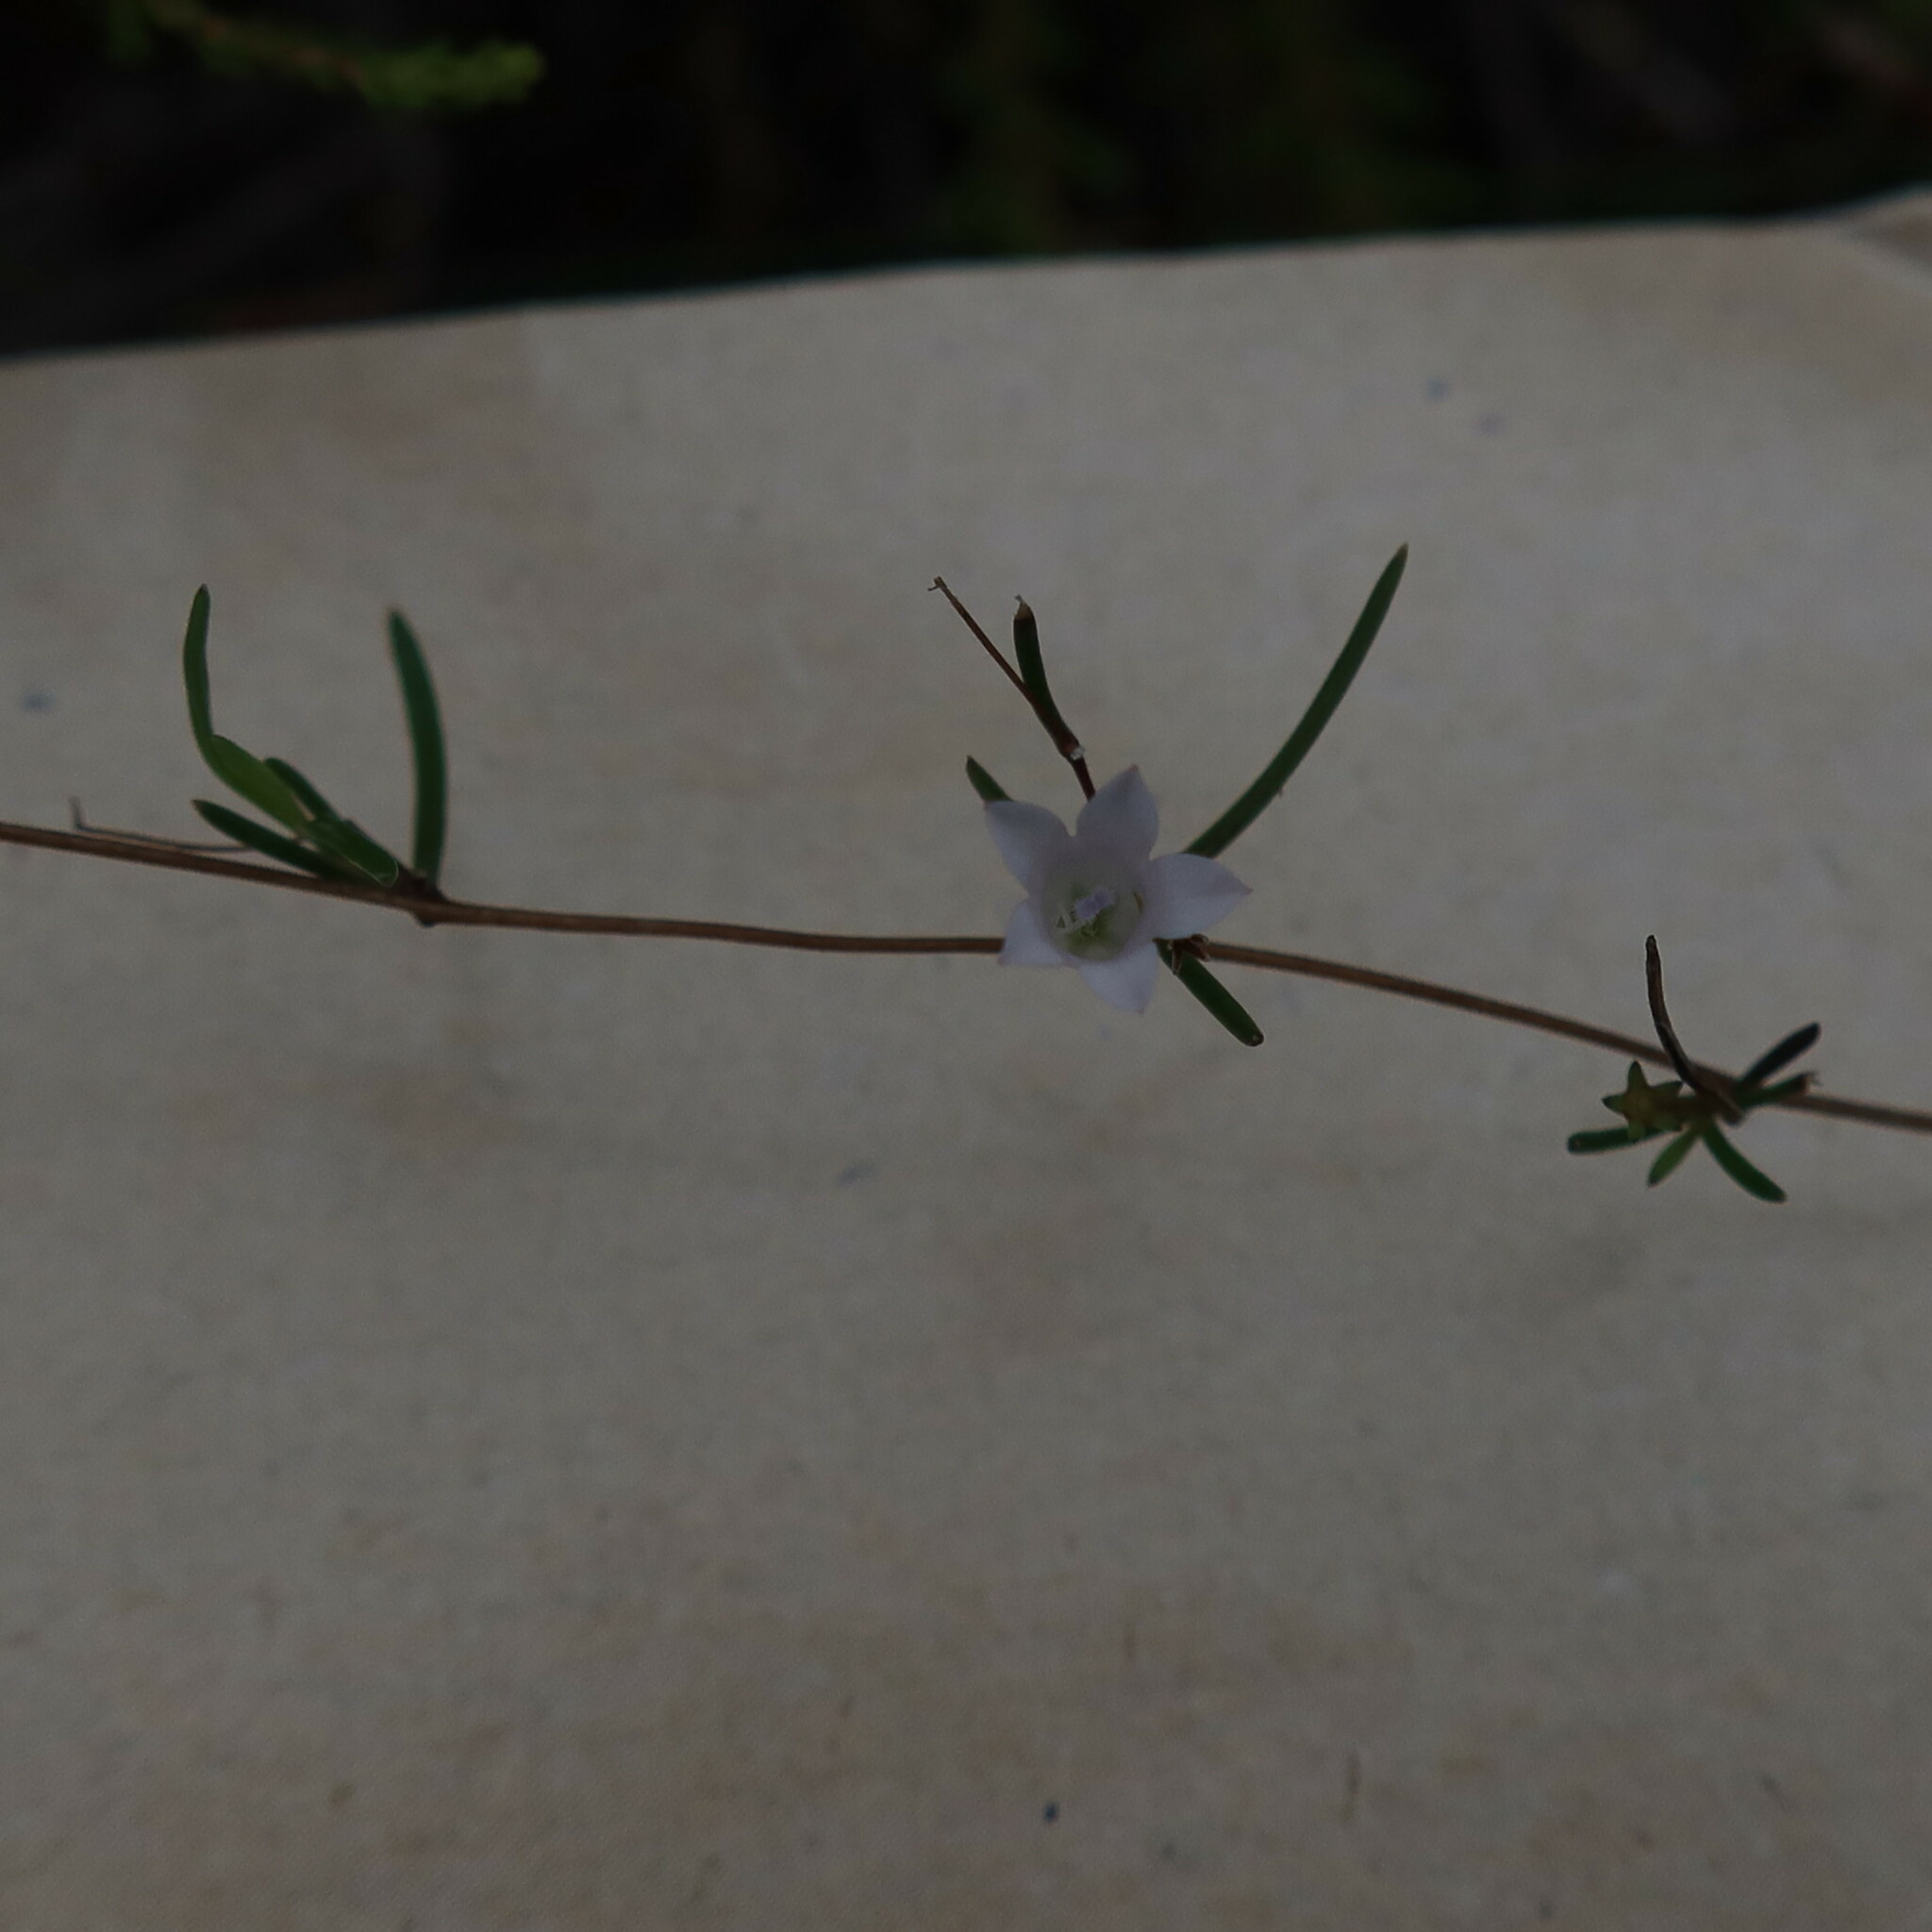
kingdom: Plantae
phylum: Tracheophyta
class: Magnoliopsida
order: Asterales
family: Campanulaceae
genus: Prismatocarpus
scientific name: Prismatocarpus sessilis
